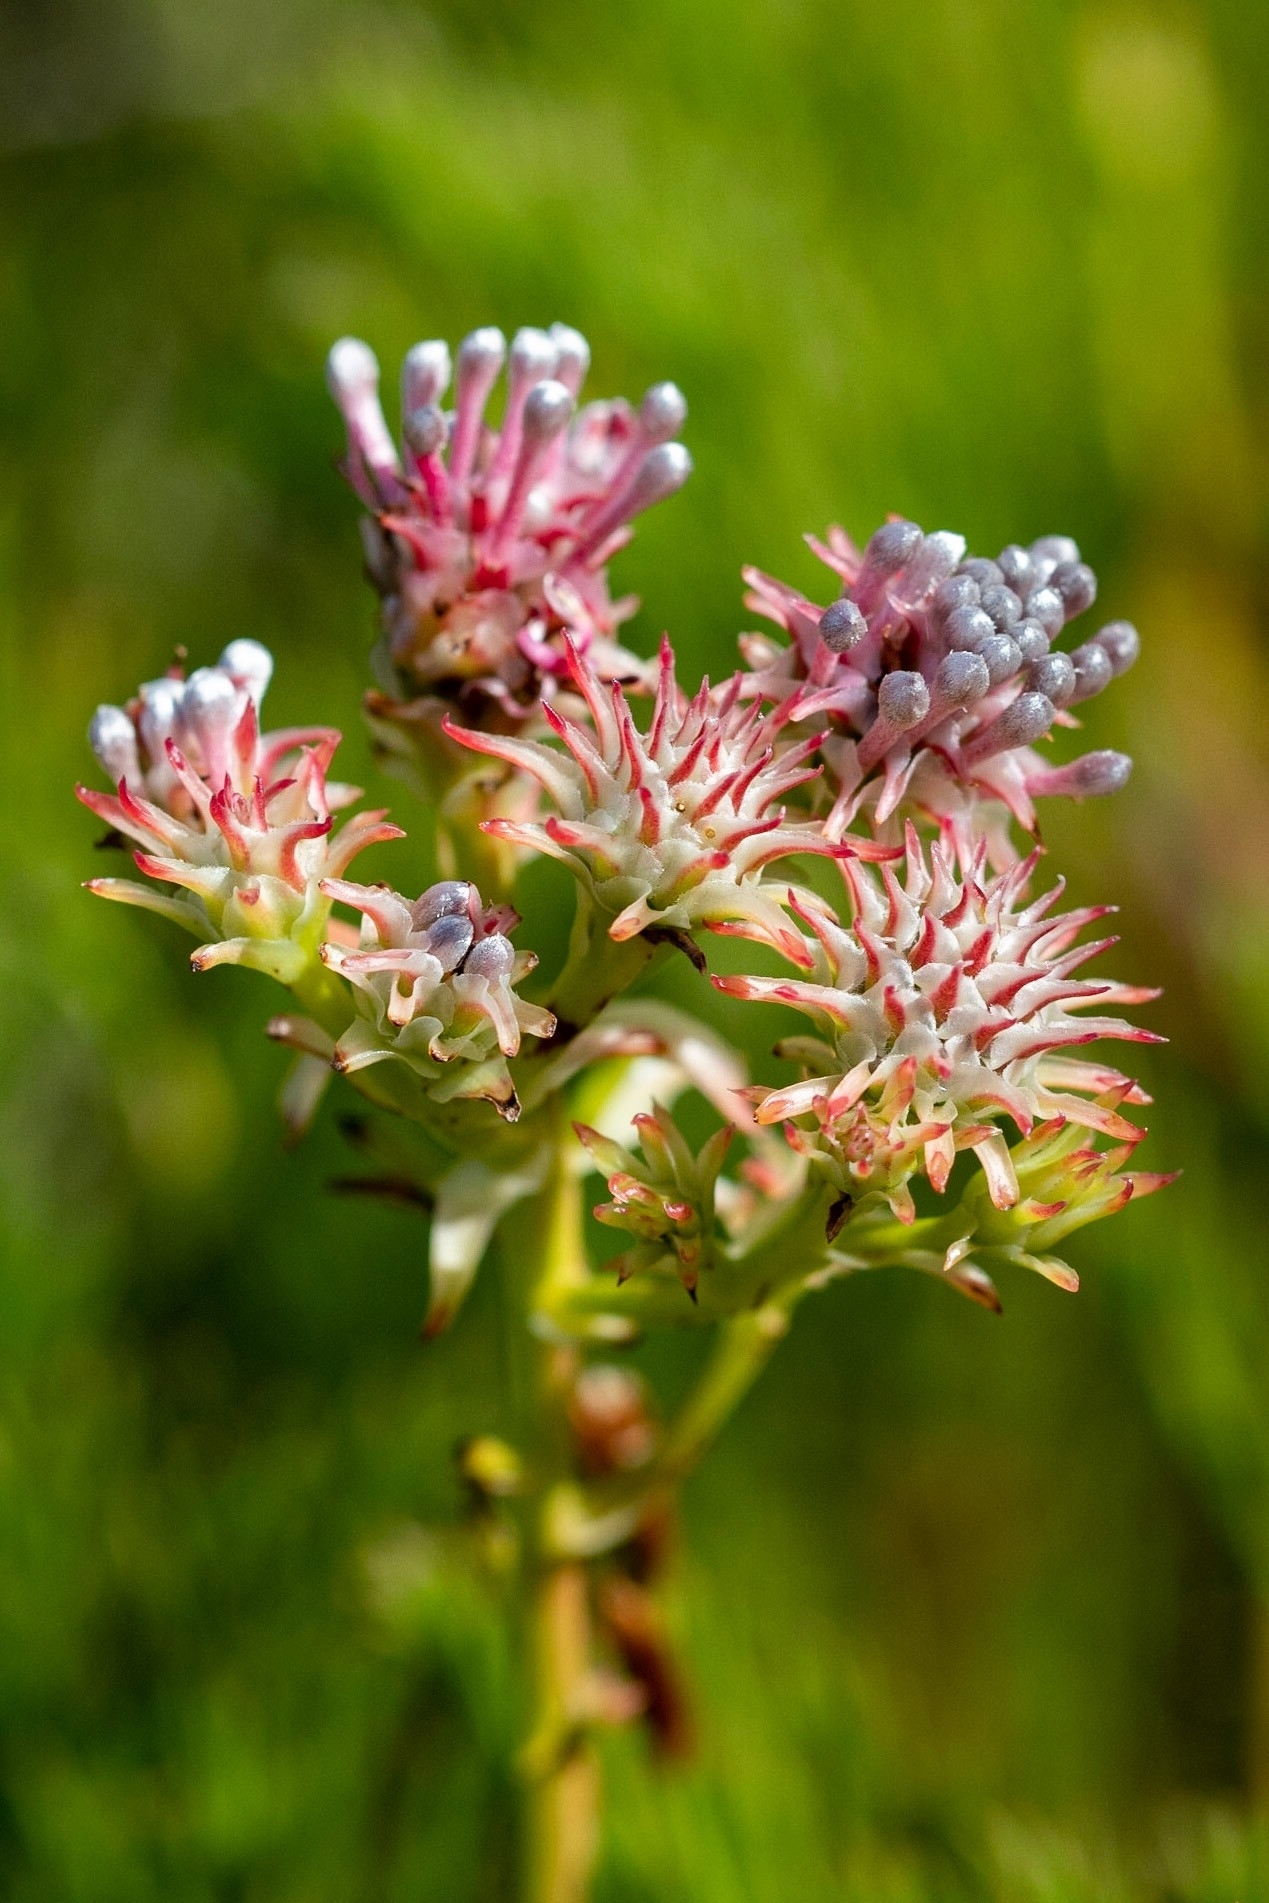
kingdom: Plantae
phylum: Tracheophyta
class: Magnoliopsida
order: Proteales
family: Proteaceae
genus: Serruria
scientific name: Serruria elongata
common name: Long-stalk spiderhead
